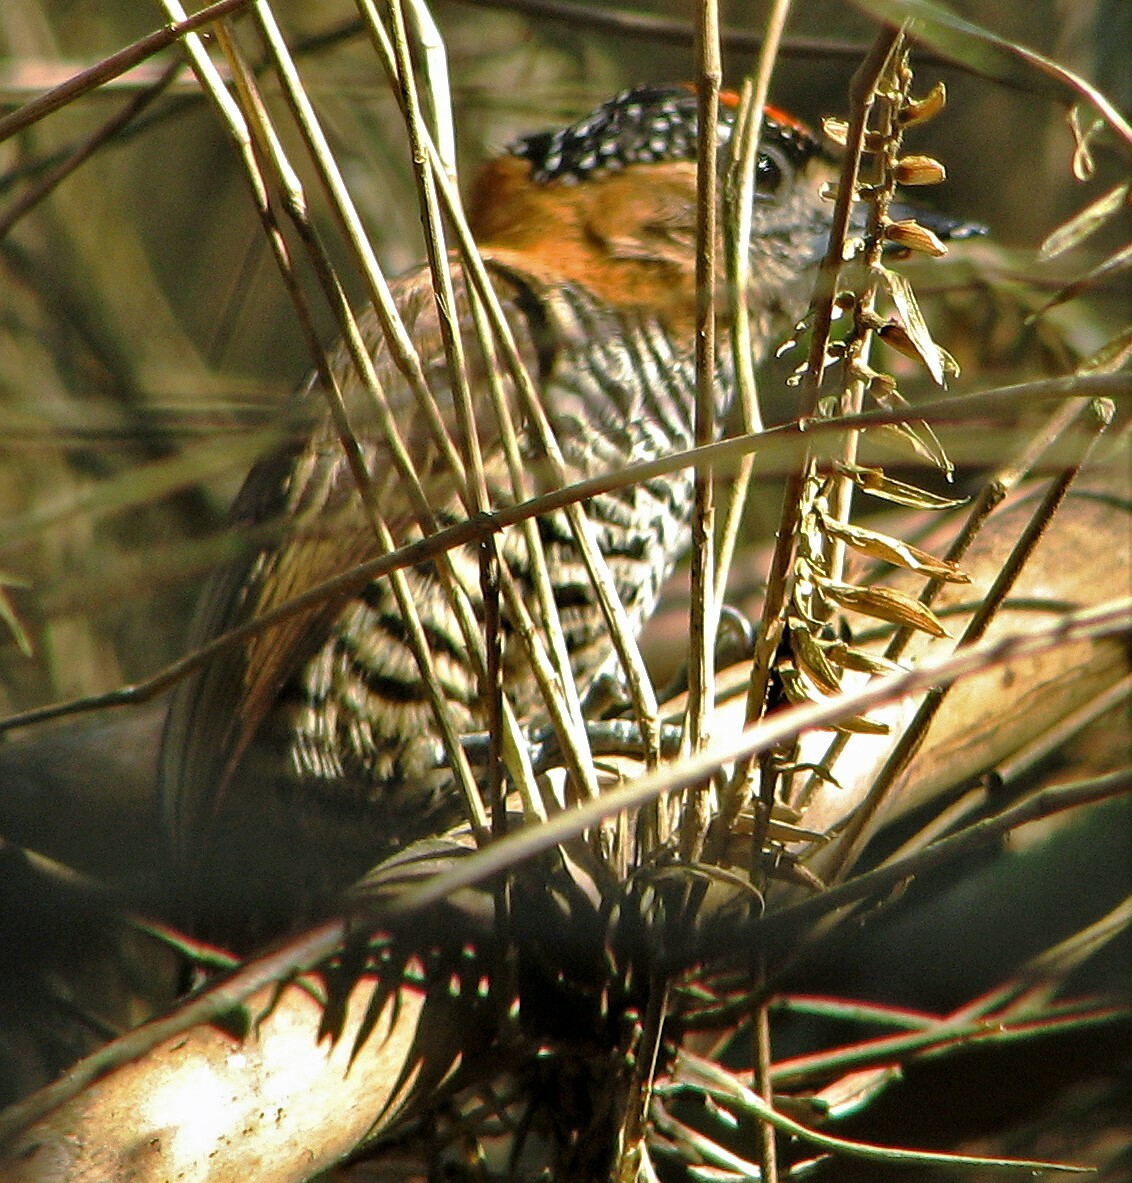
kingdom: Animalia
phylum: Chordata
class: Aves
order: Piciformes
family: Picidae
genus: Picumnus
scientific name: Picumnus temminckii
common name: Ochre-collared piculet
